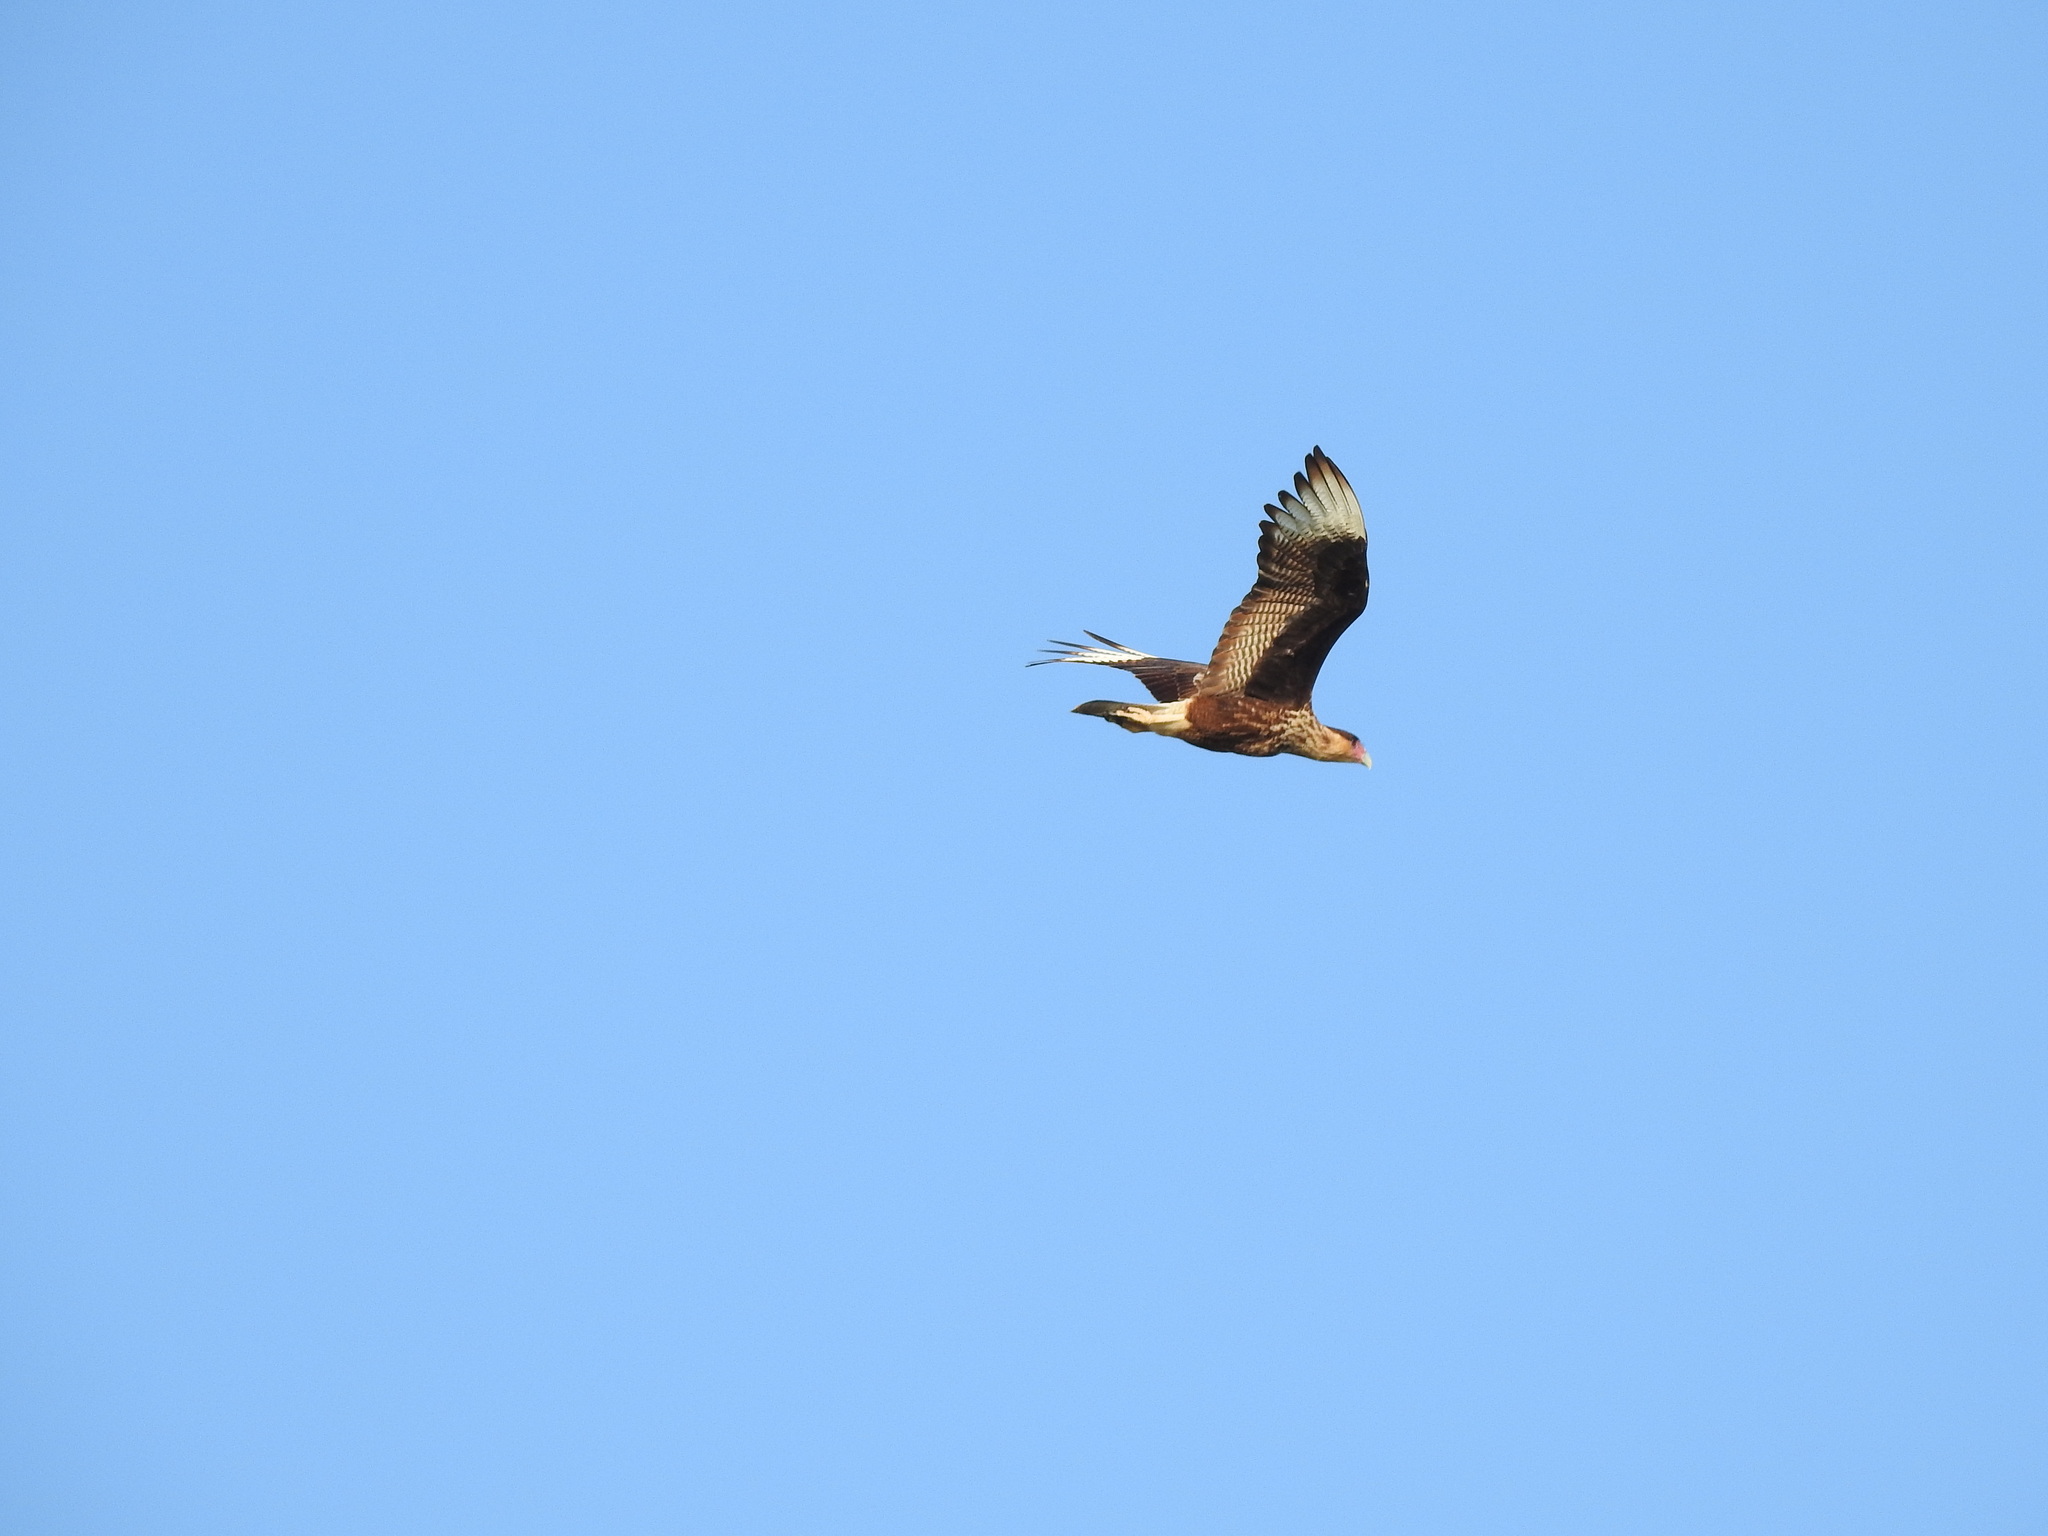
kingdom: Animalia
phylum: Chordata
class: Aves
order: Falconiformes
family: Falconidae
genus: Caracara
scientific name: Caracara plancus
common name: Southern caracara
